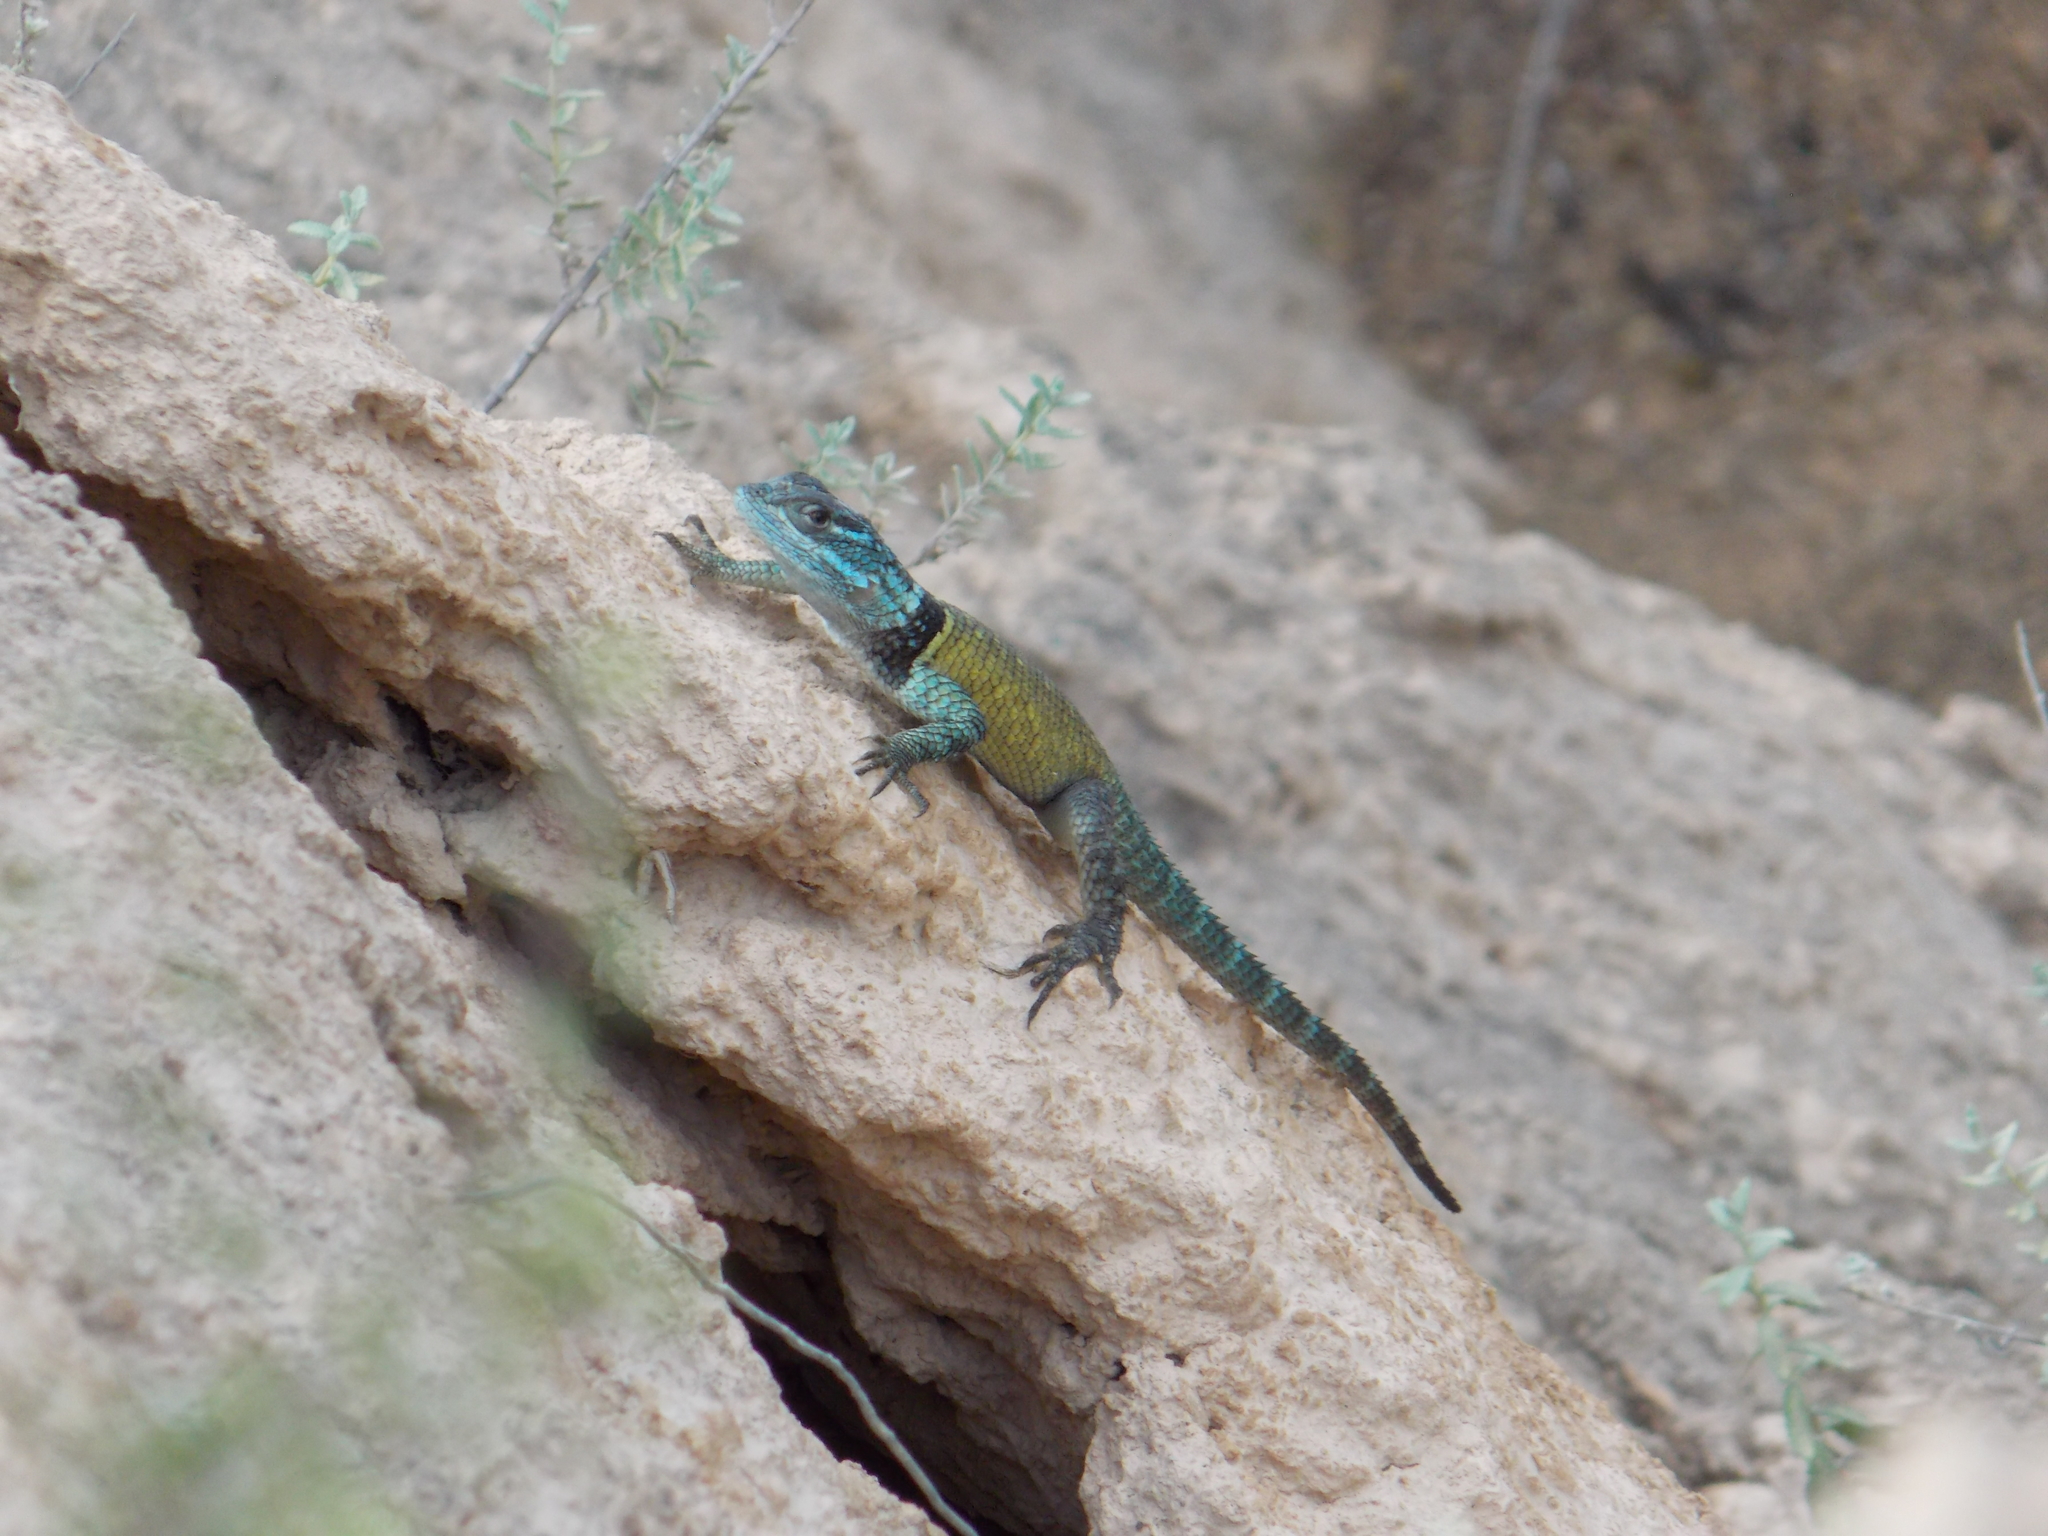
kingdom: Animalia
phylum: Chordata
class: Squamata
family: Phrynosomatidae
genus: Sceloporus
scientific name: Sceloporus minor
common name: Minor lizard
